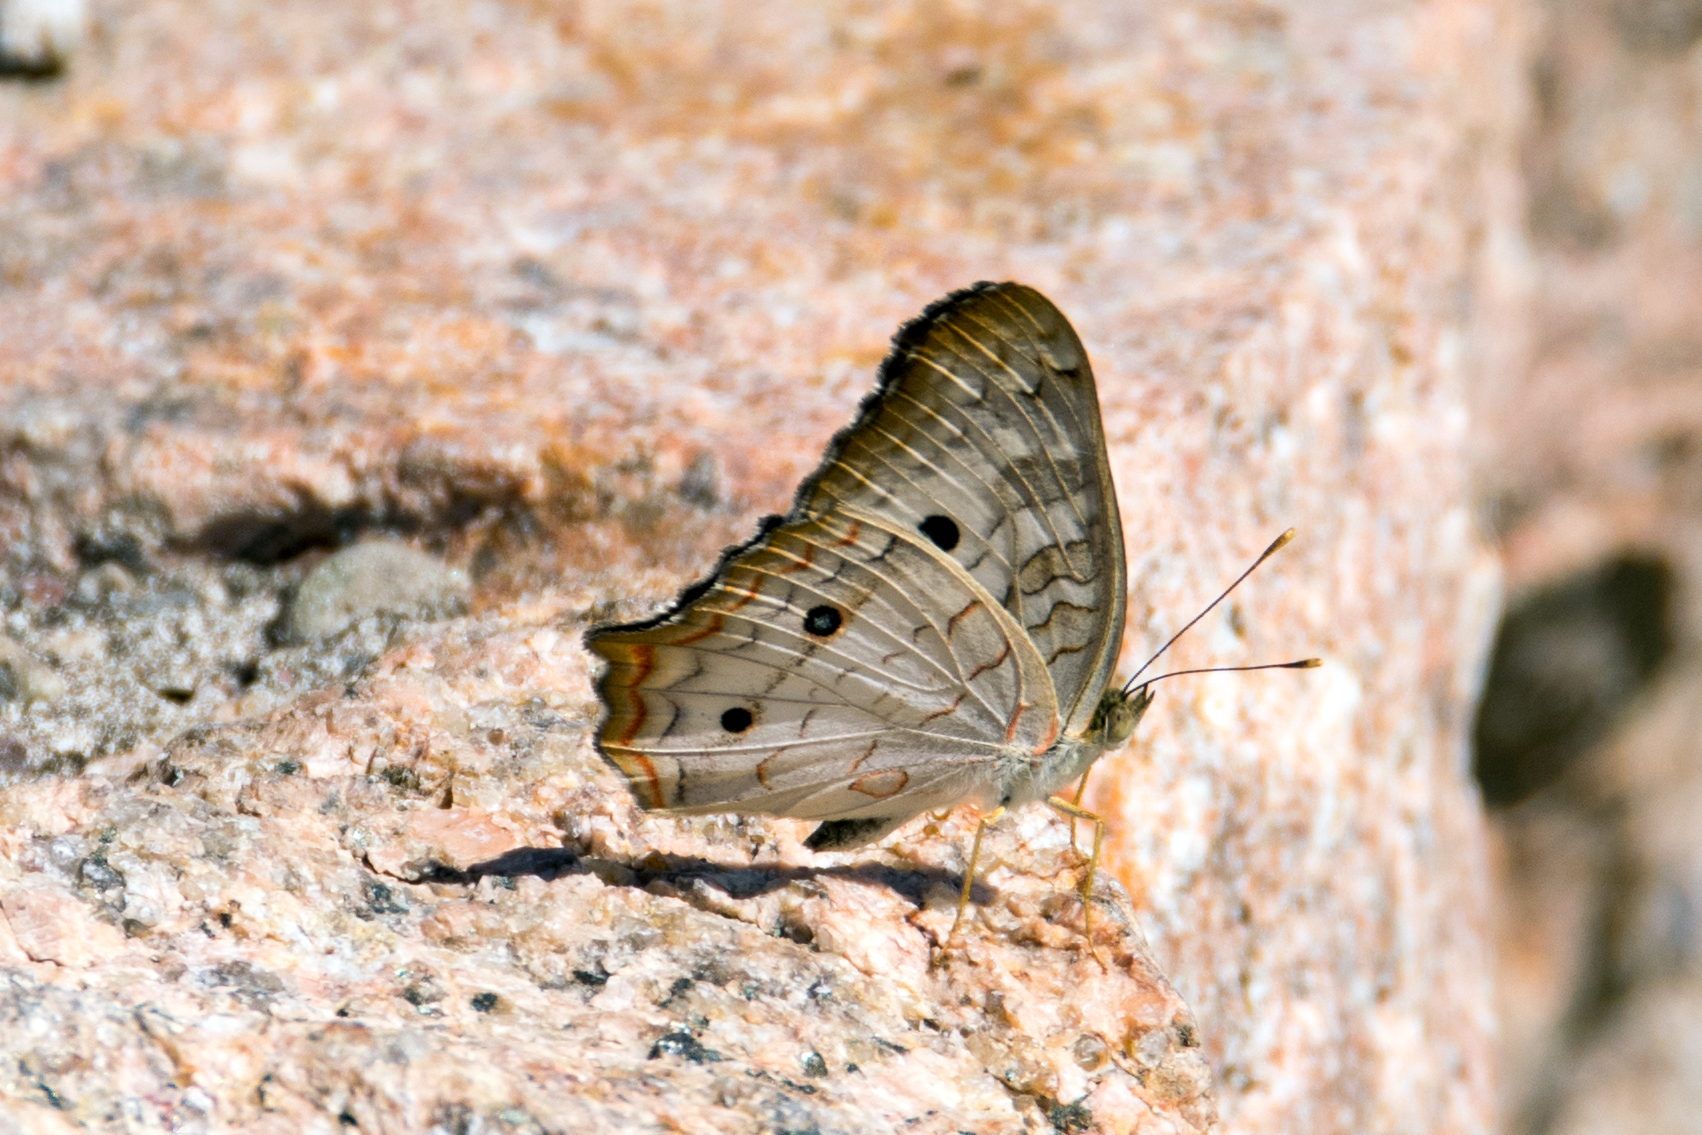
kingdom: Animalia
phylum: Arthropoda
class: Insecta
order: Lepidoptera
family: Nymphalidae
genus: Anartia
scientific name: Anartia jatrophae
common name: White peacock
